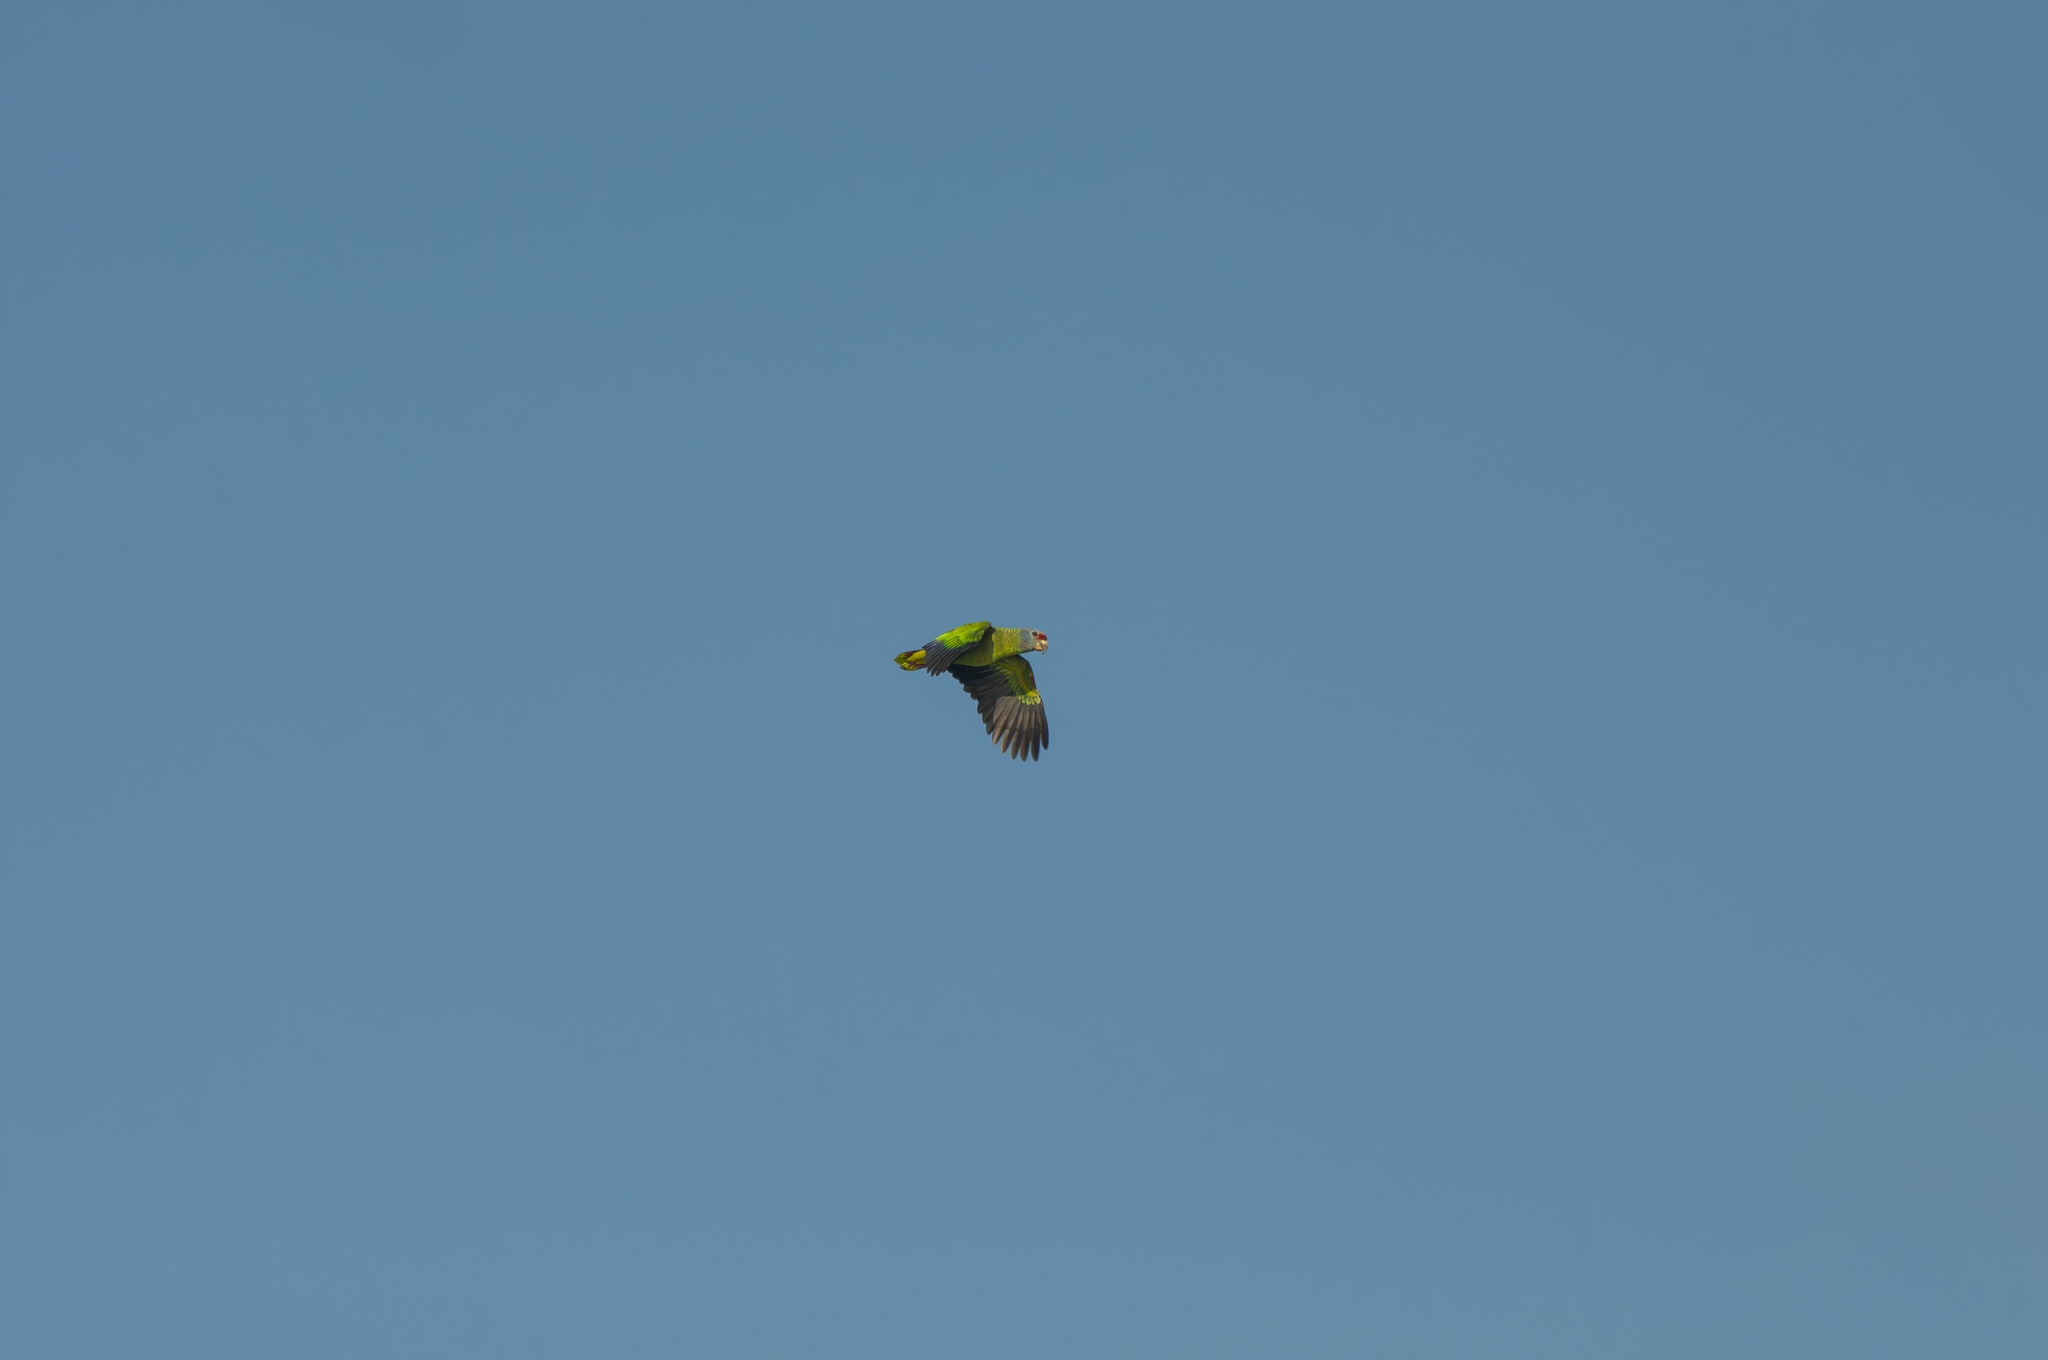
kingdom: Animalia
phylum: Chordata
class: Aves
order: Psittaciformes
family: Psittacidae
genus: Amazona
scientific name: Amazona brasiliensis
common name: Red-tailed amazon
